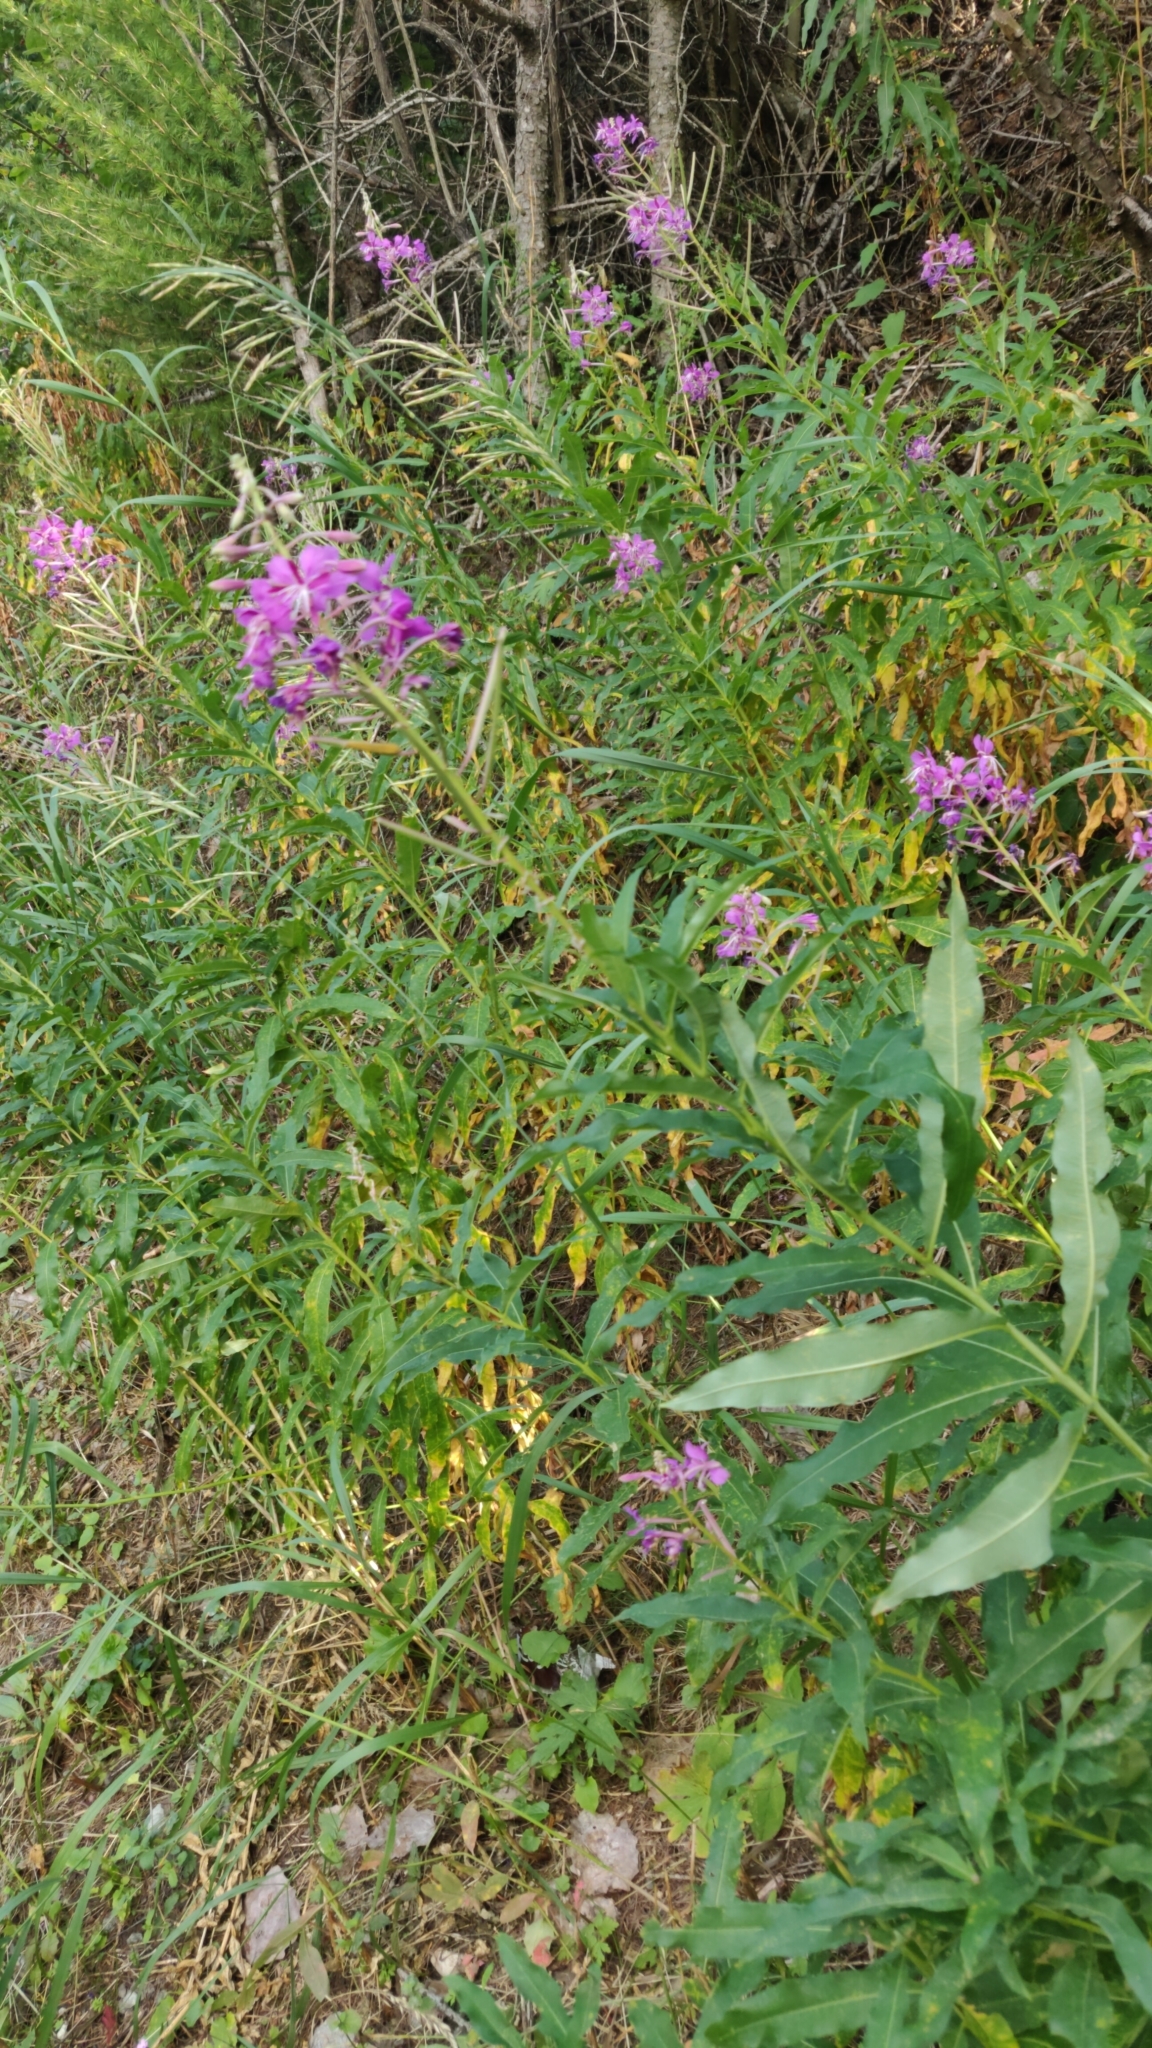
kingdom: Plantae
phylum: Tracheophyta
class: Magnoliopsida
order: Myrtales
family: Onagraceae
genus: Chamaenerion
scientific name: Chamaenerion angustifolium
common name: Fireweed
